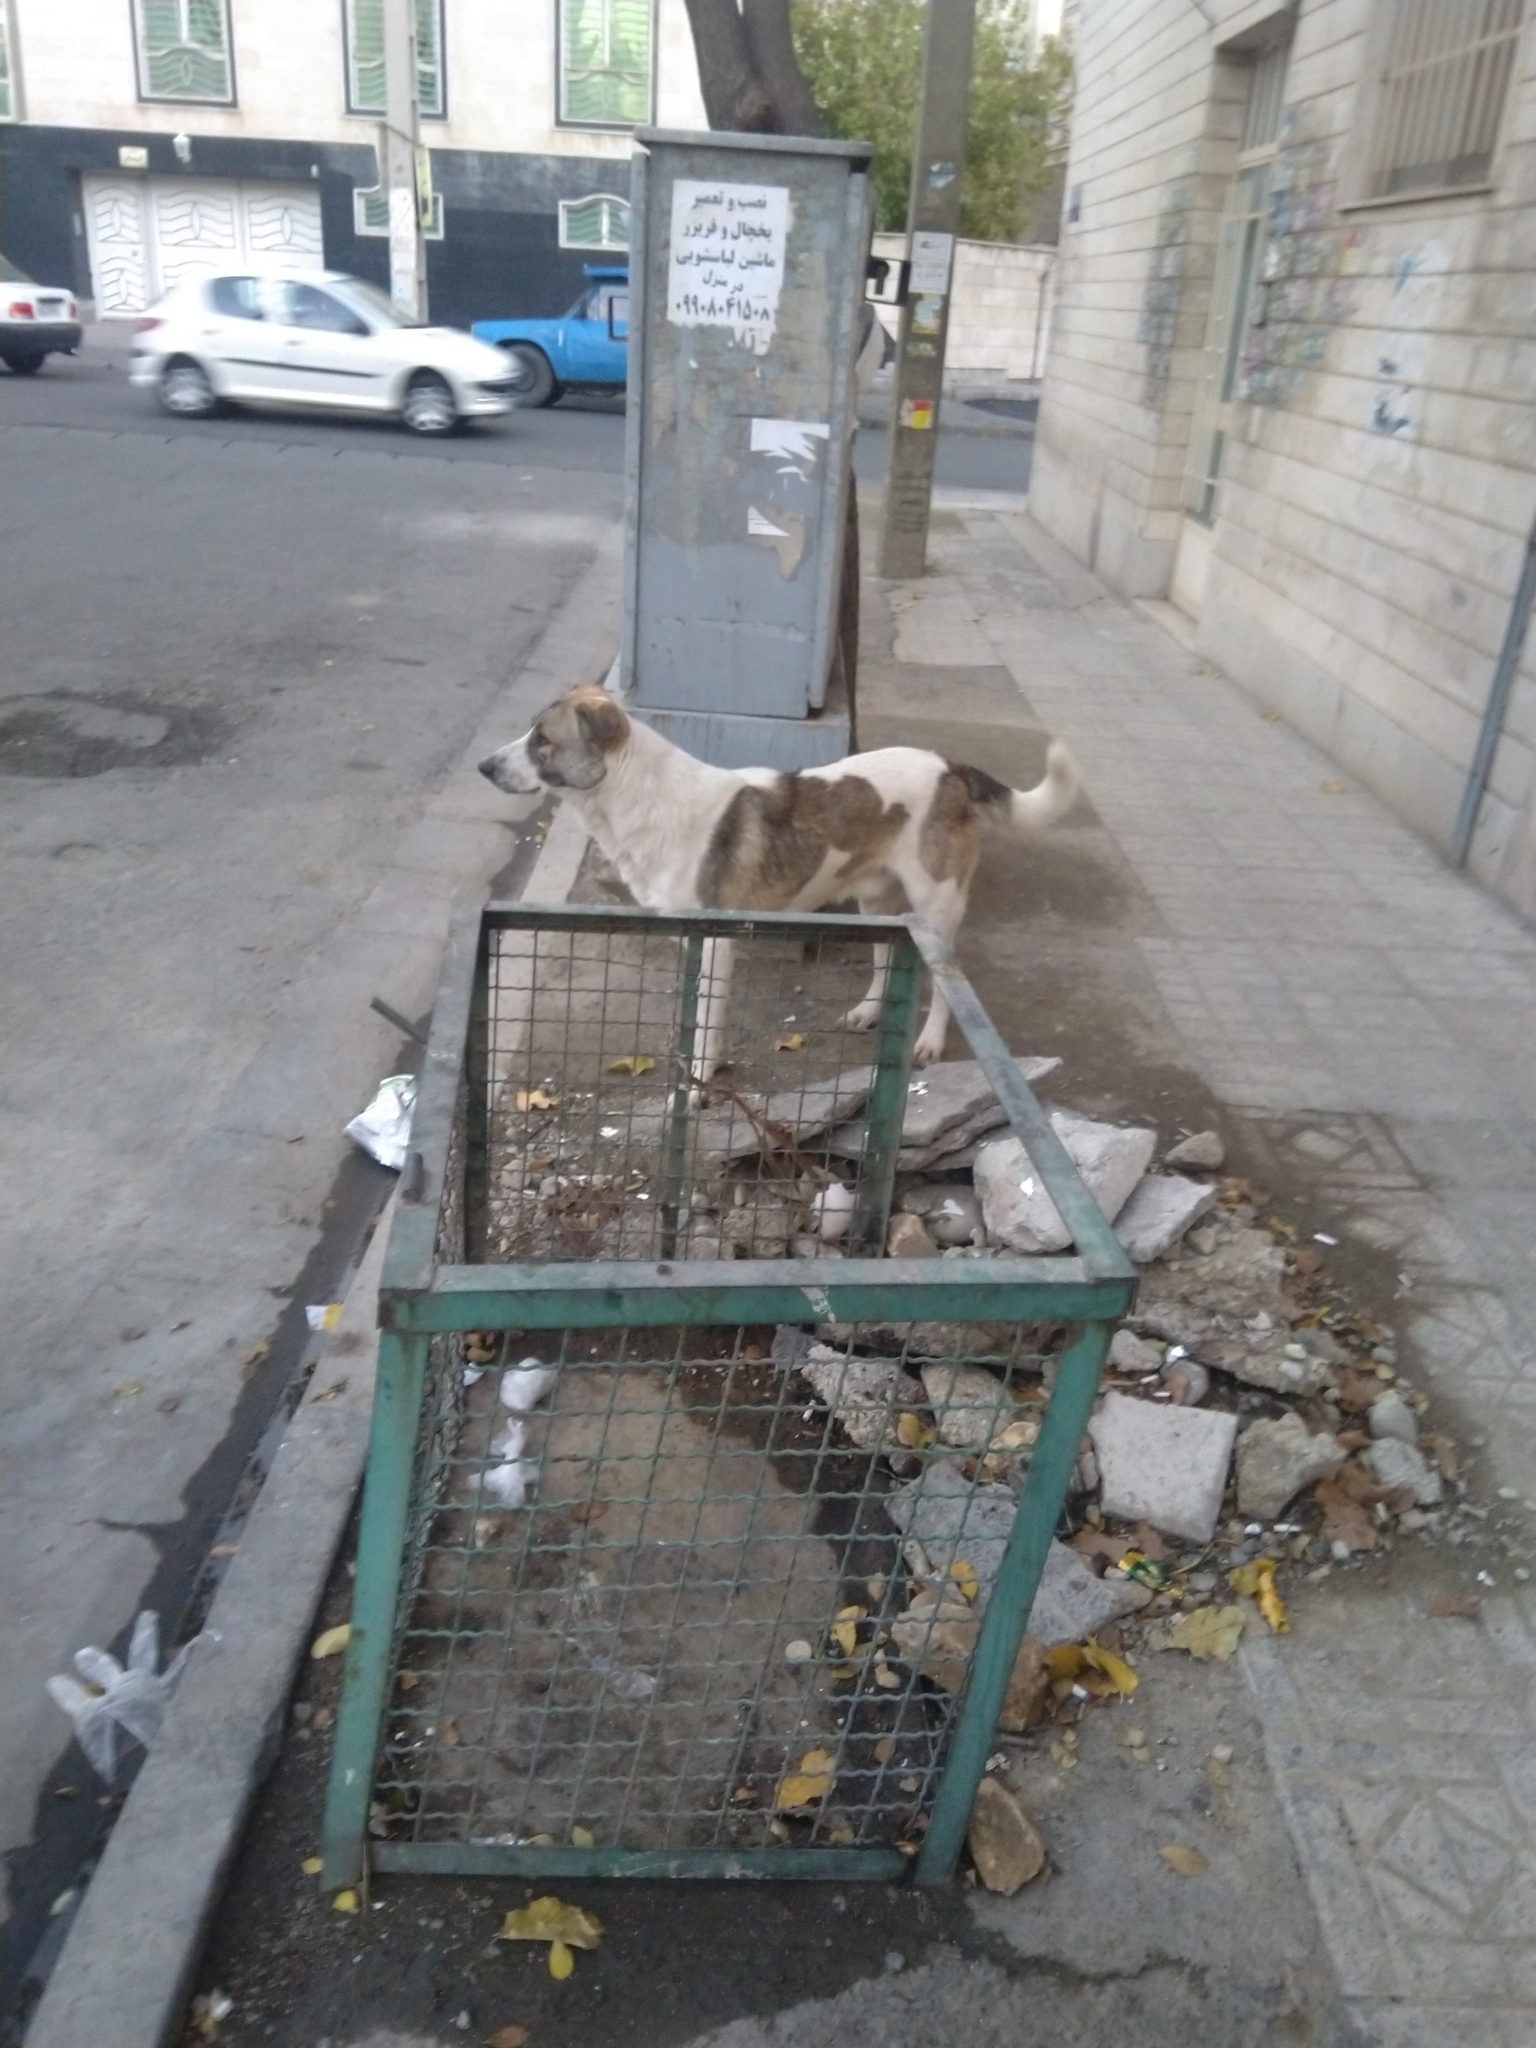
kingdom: Animalia
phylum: Chordata
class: Mammalia
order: Carnivora
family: Canidae
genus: Canis
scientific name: Canis lupus
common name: Gray wolf
